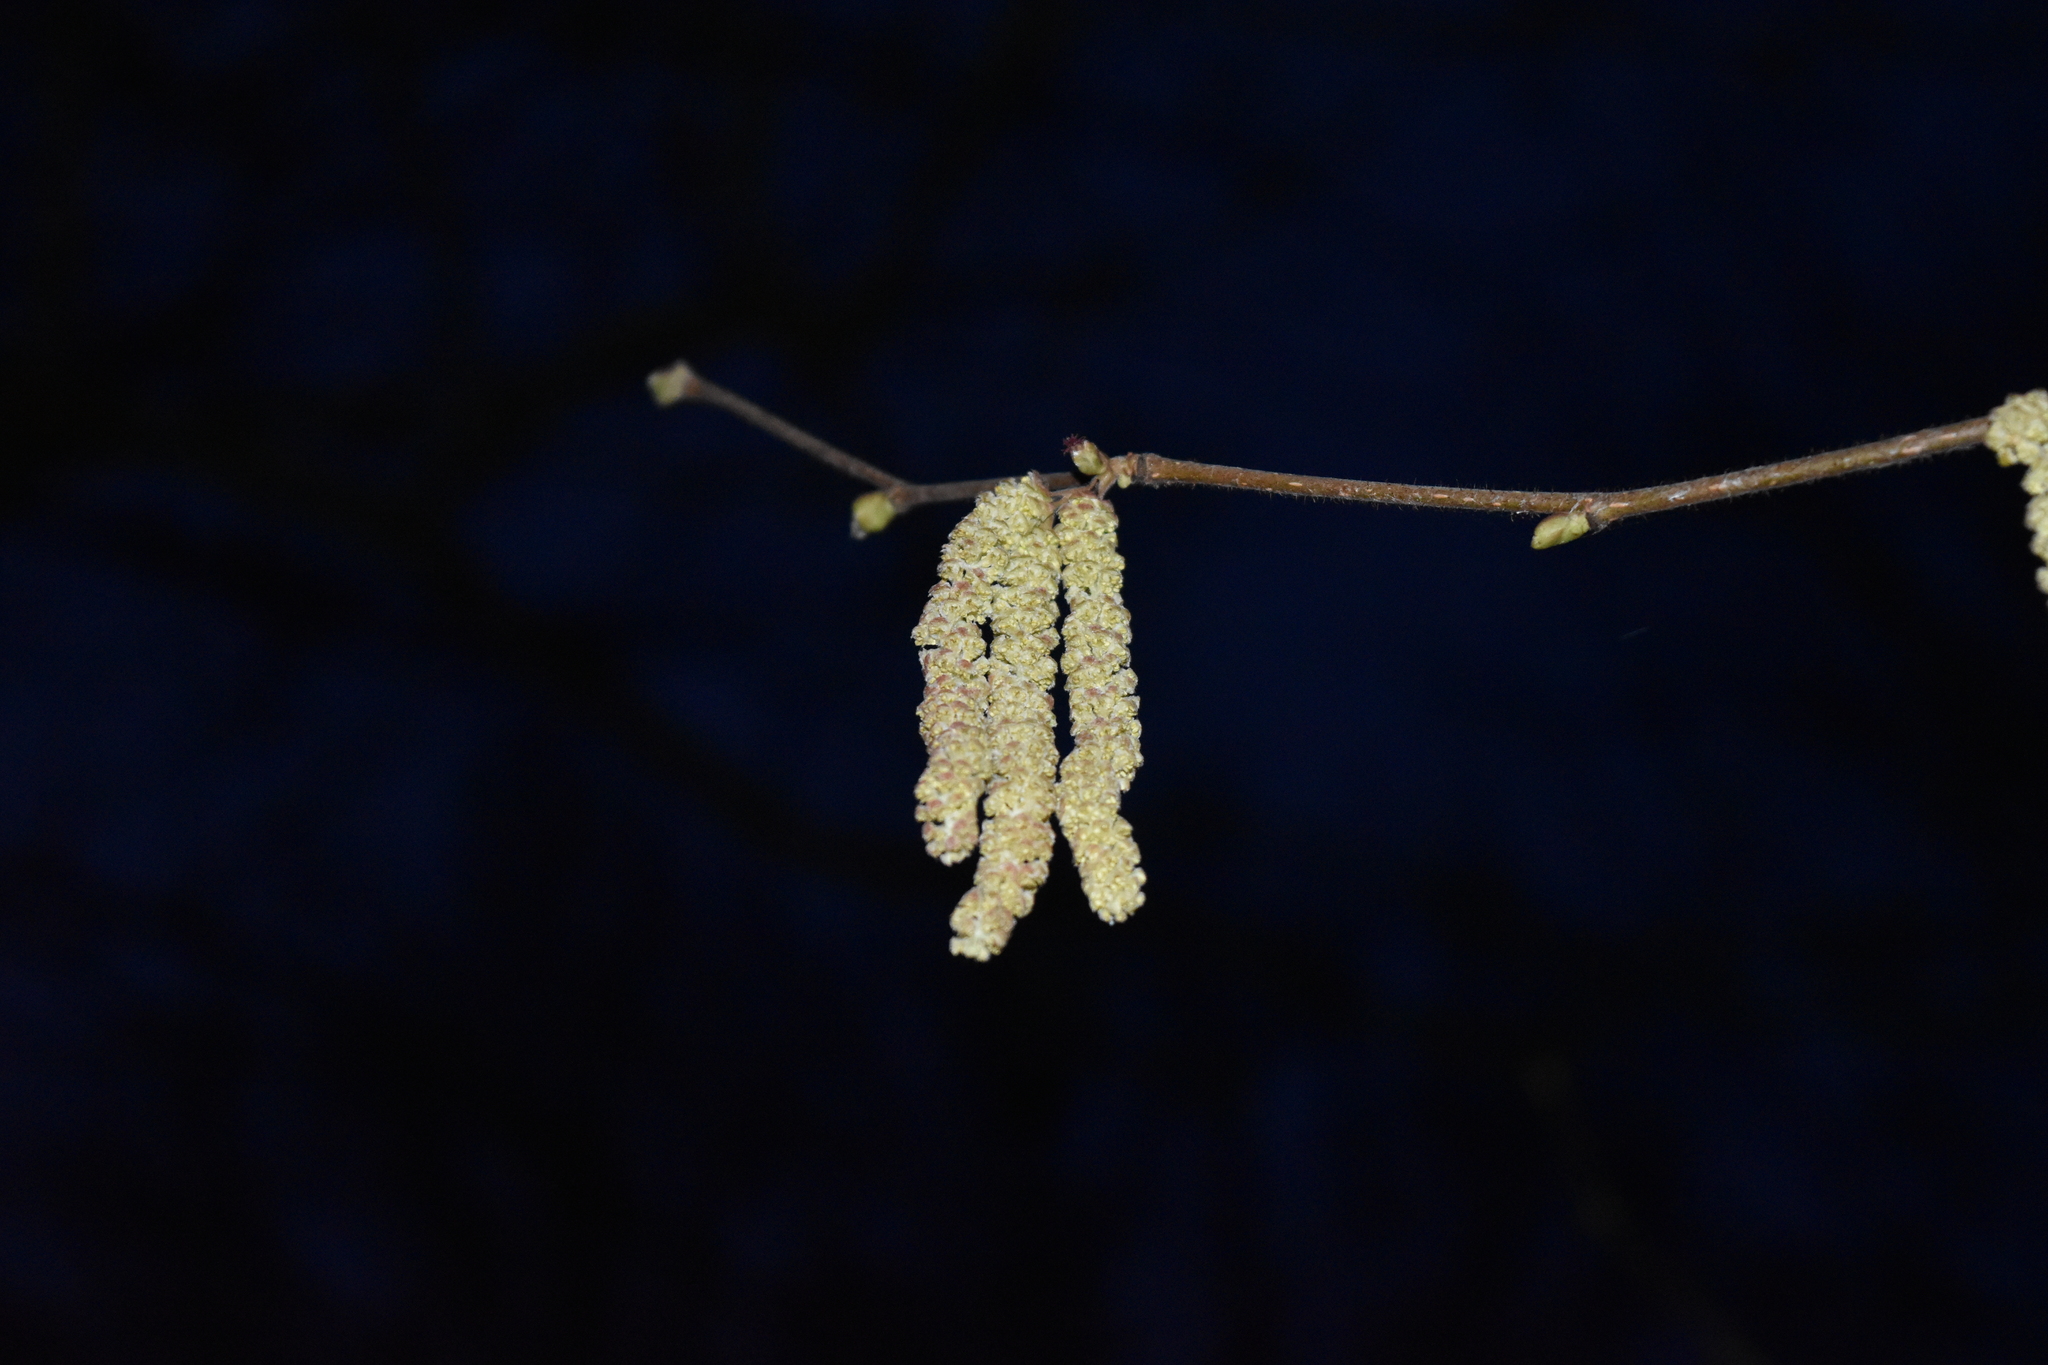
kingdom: Plantae
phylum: Tracheophyta
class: Magnoliopsida
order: Fagales
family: Betulaceae
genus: Corylus
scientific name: Corylus avellana
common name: European hazel
